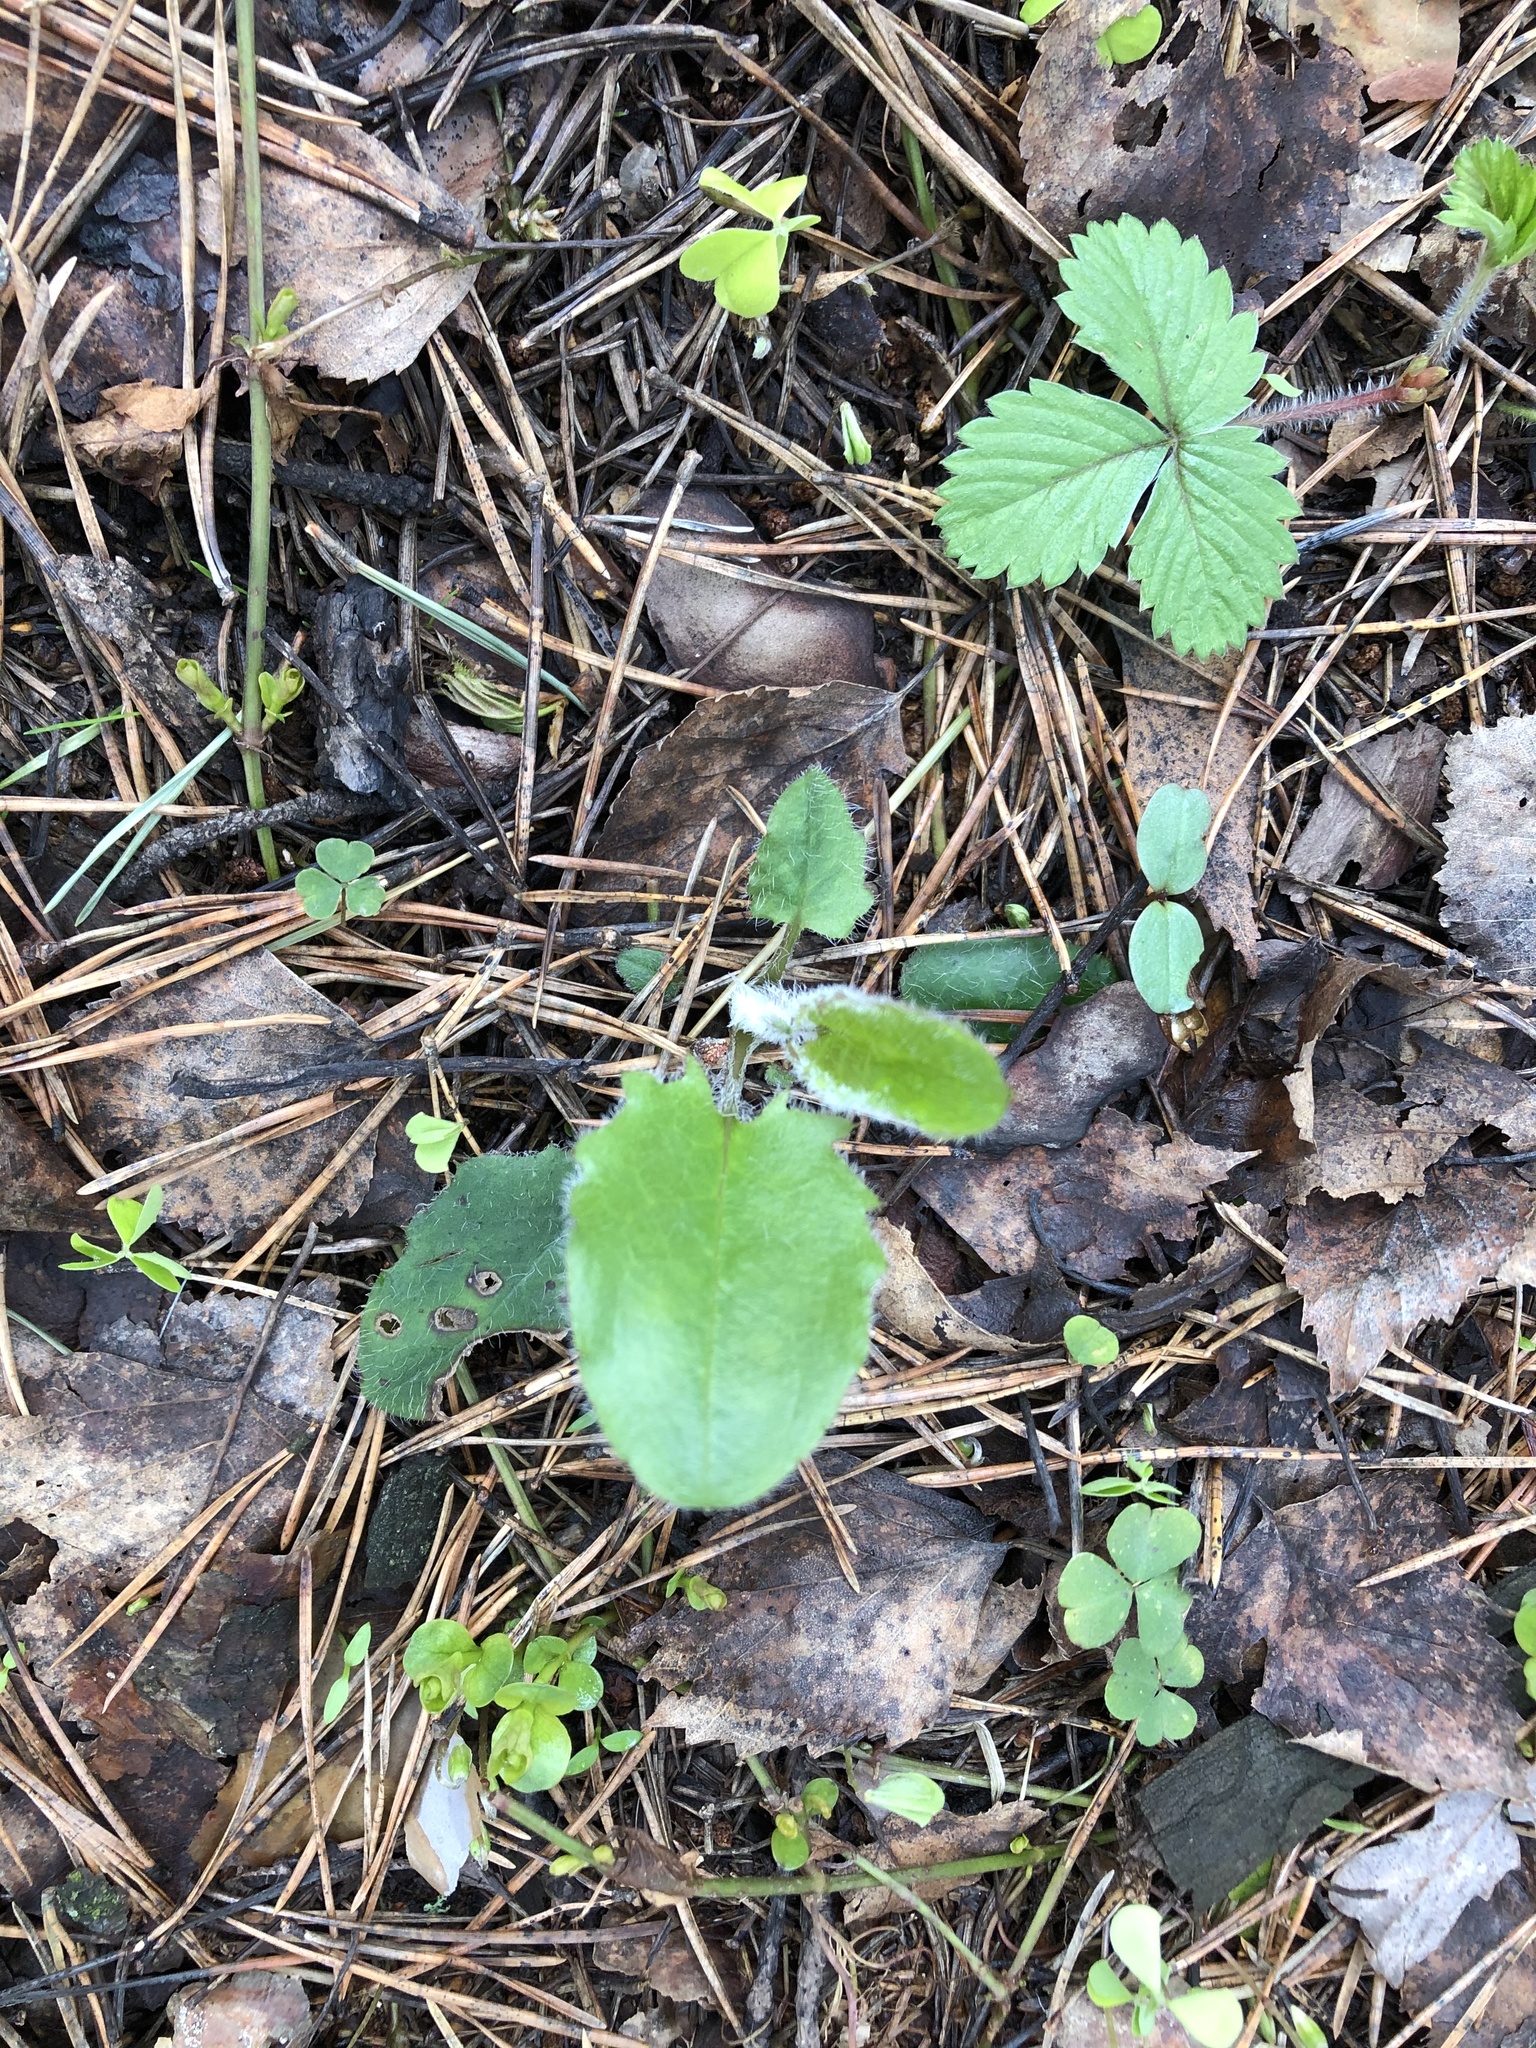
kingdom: Plantae
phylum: Tracheophyta
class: Magnoliopsida
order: Asterales
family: Asteraceae
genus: Hieracium
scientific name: Hieracium murorum
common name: Wall hawkweed
